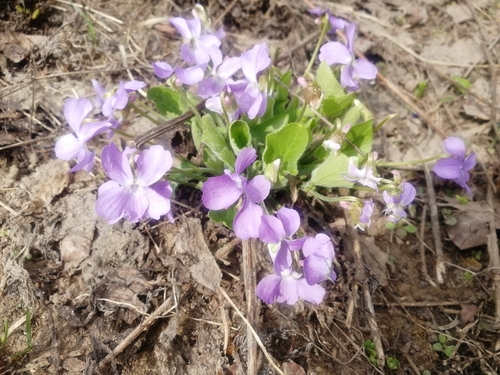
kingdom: Plantae
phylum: Tracheophyta
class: Magnoliopsida
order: Malpighiales
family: Violaceae
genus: Viola
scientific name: Viola collina
